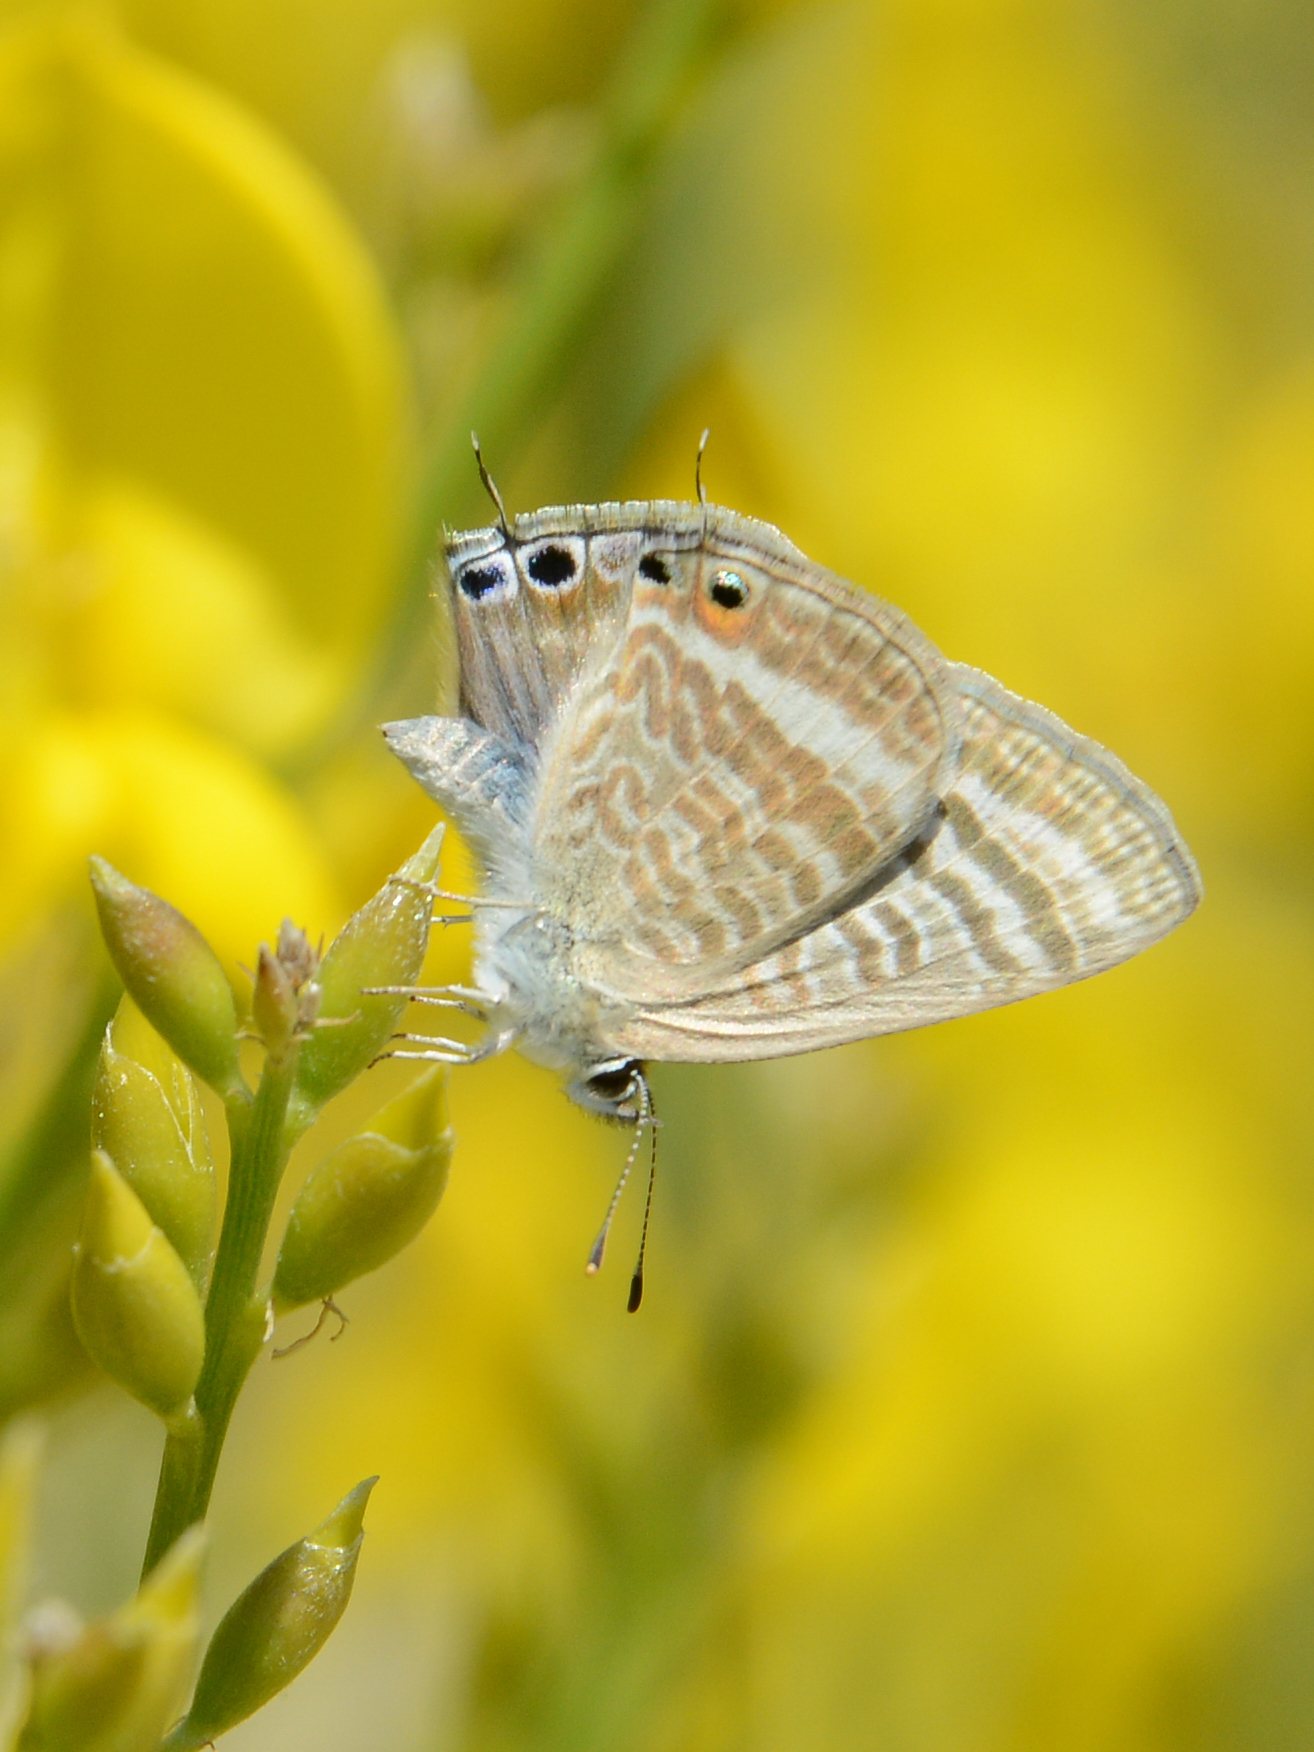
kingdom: Animalia
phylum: Arthropoda
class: Insecta
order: Lepidoptera
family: Lycaenidae
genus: Lampides
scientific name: Lampides boeticus
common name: Long-tailed blue
